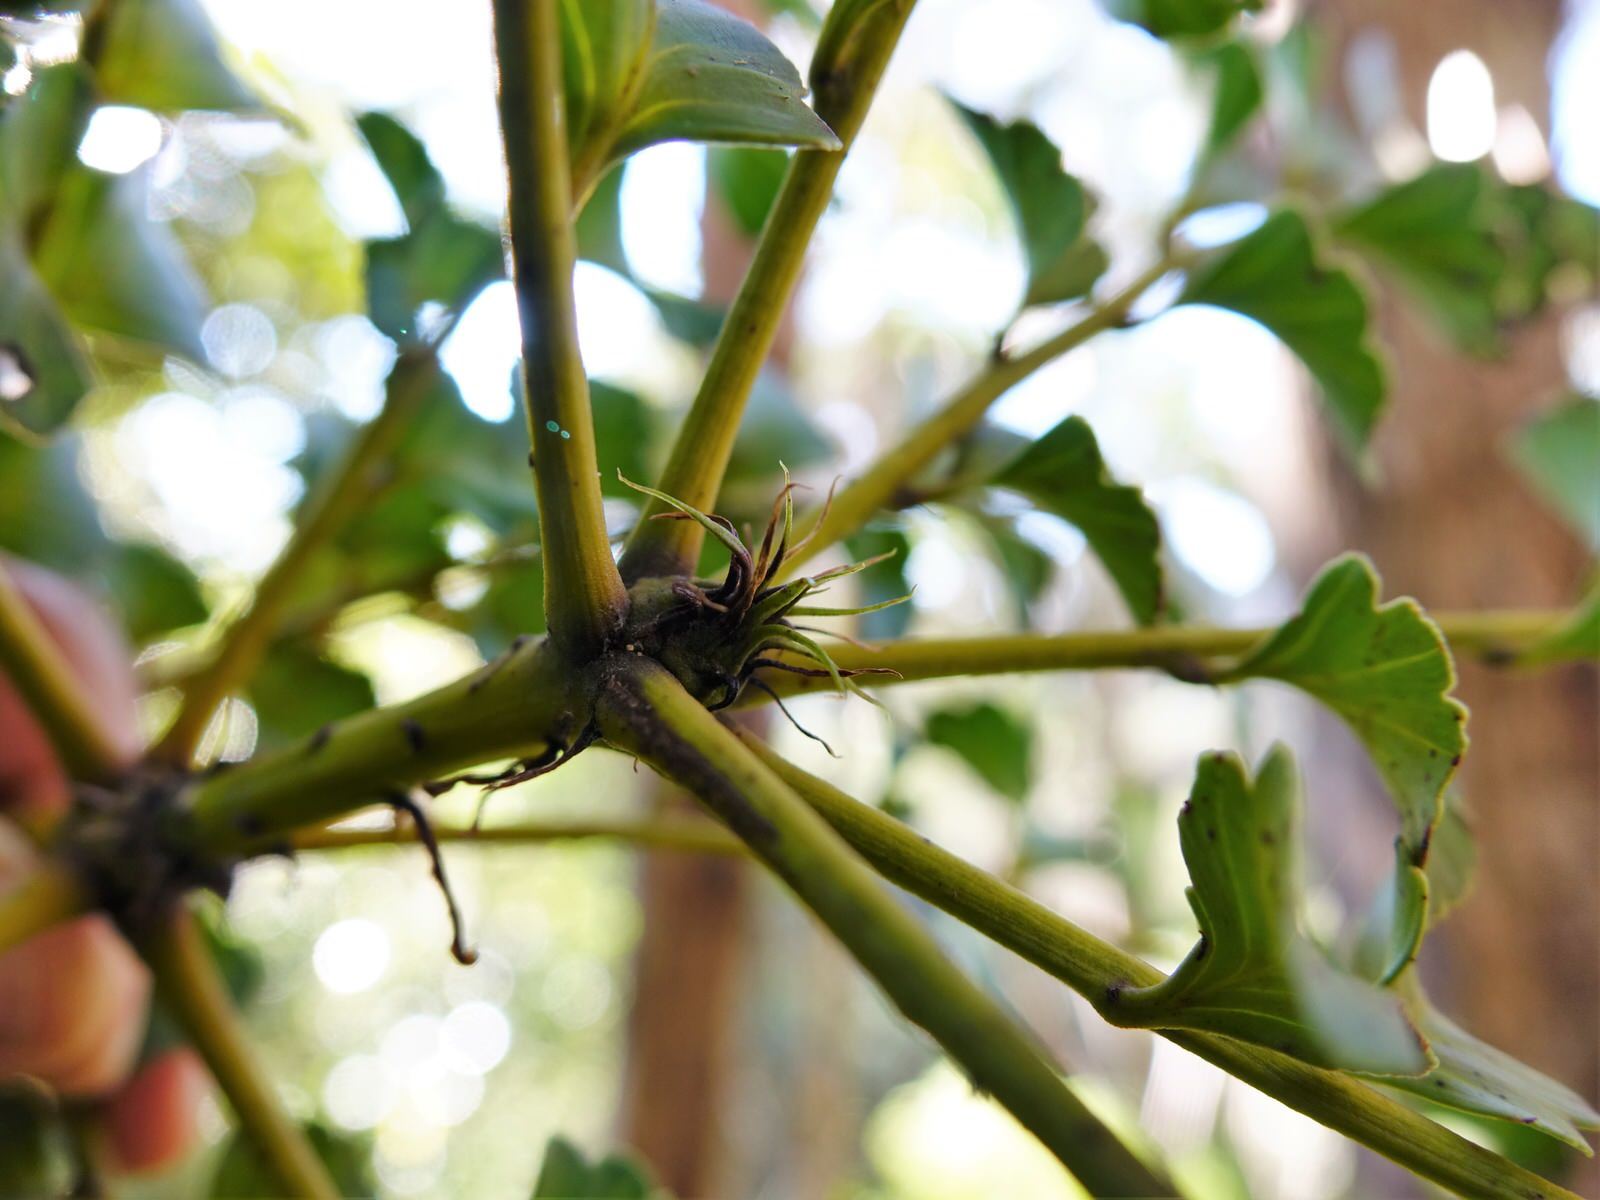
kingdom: Plantae
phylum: Tracheophyta
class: Pinopsida
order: Pinales
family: Phyllocladaceae
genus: Phyllocladus
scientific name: Phyllocladus toatoa
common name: Celery-top pine
